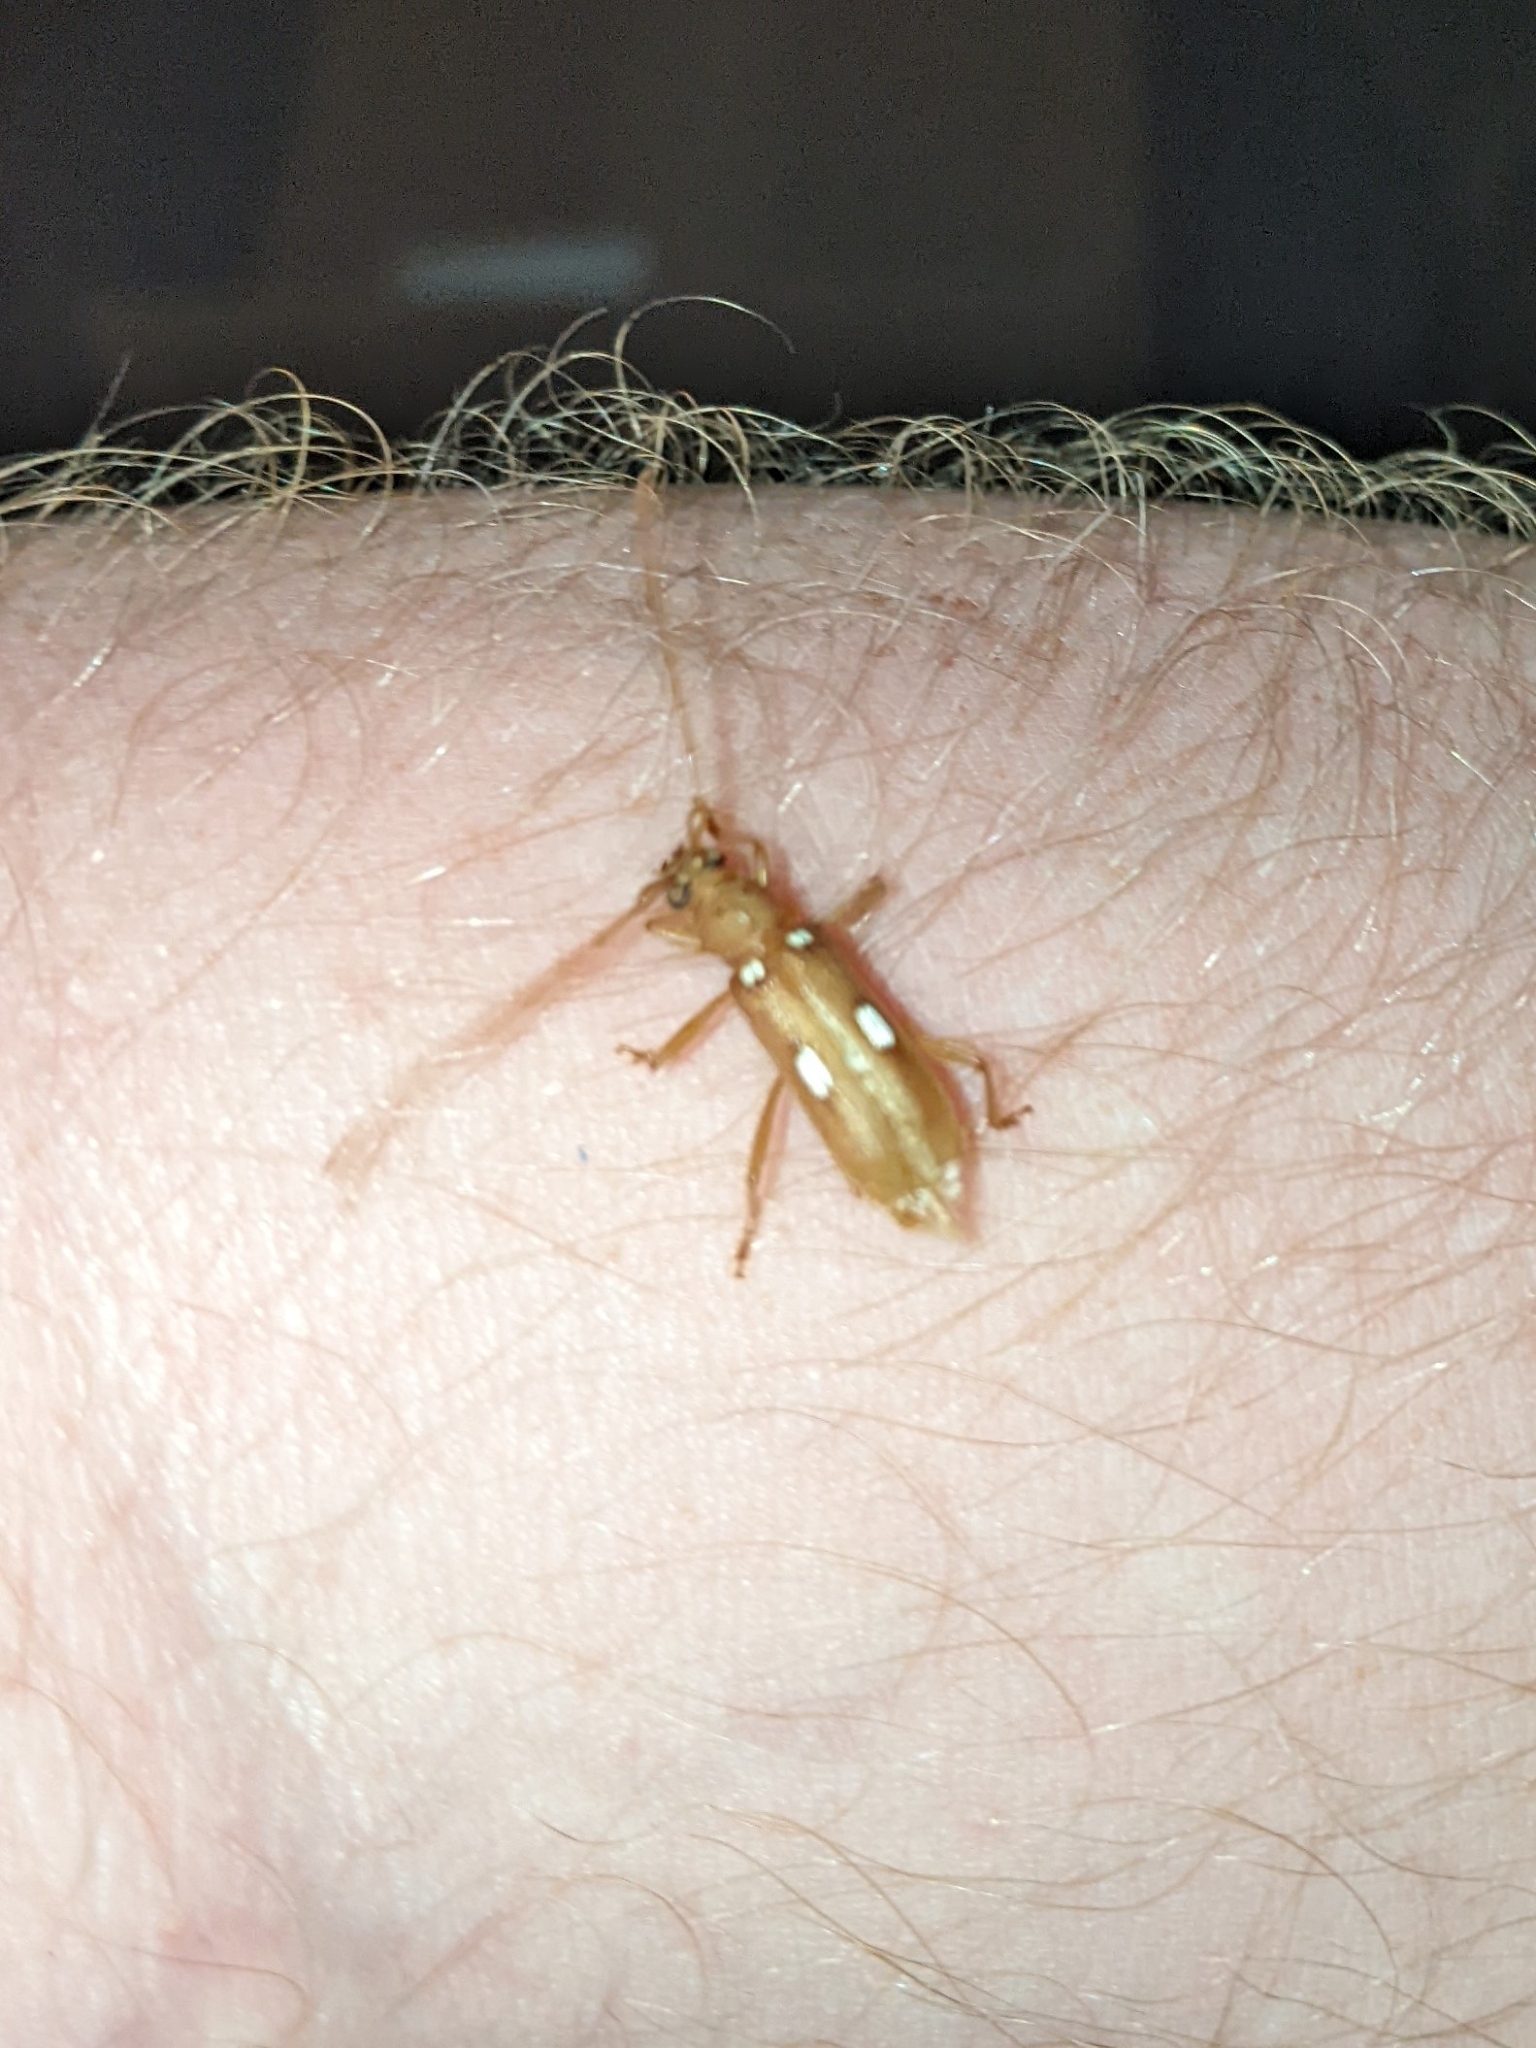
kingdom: Animalia
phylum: Arthropoda
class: Insecta
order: Coleoptera
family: Cerambycidae
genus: Eburia
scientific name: Eburia quadrigeminata
